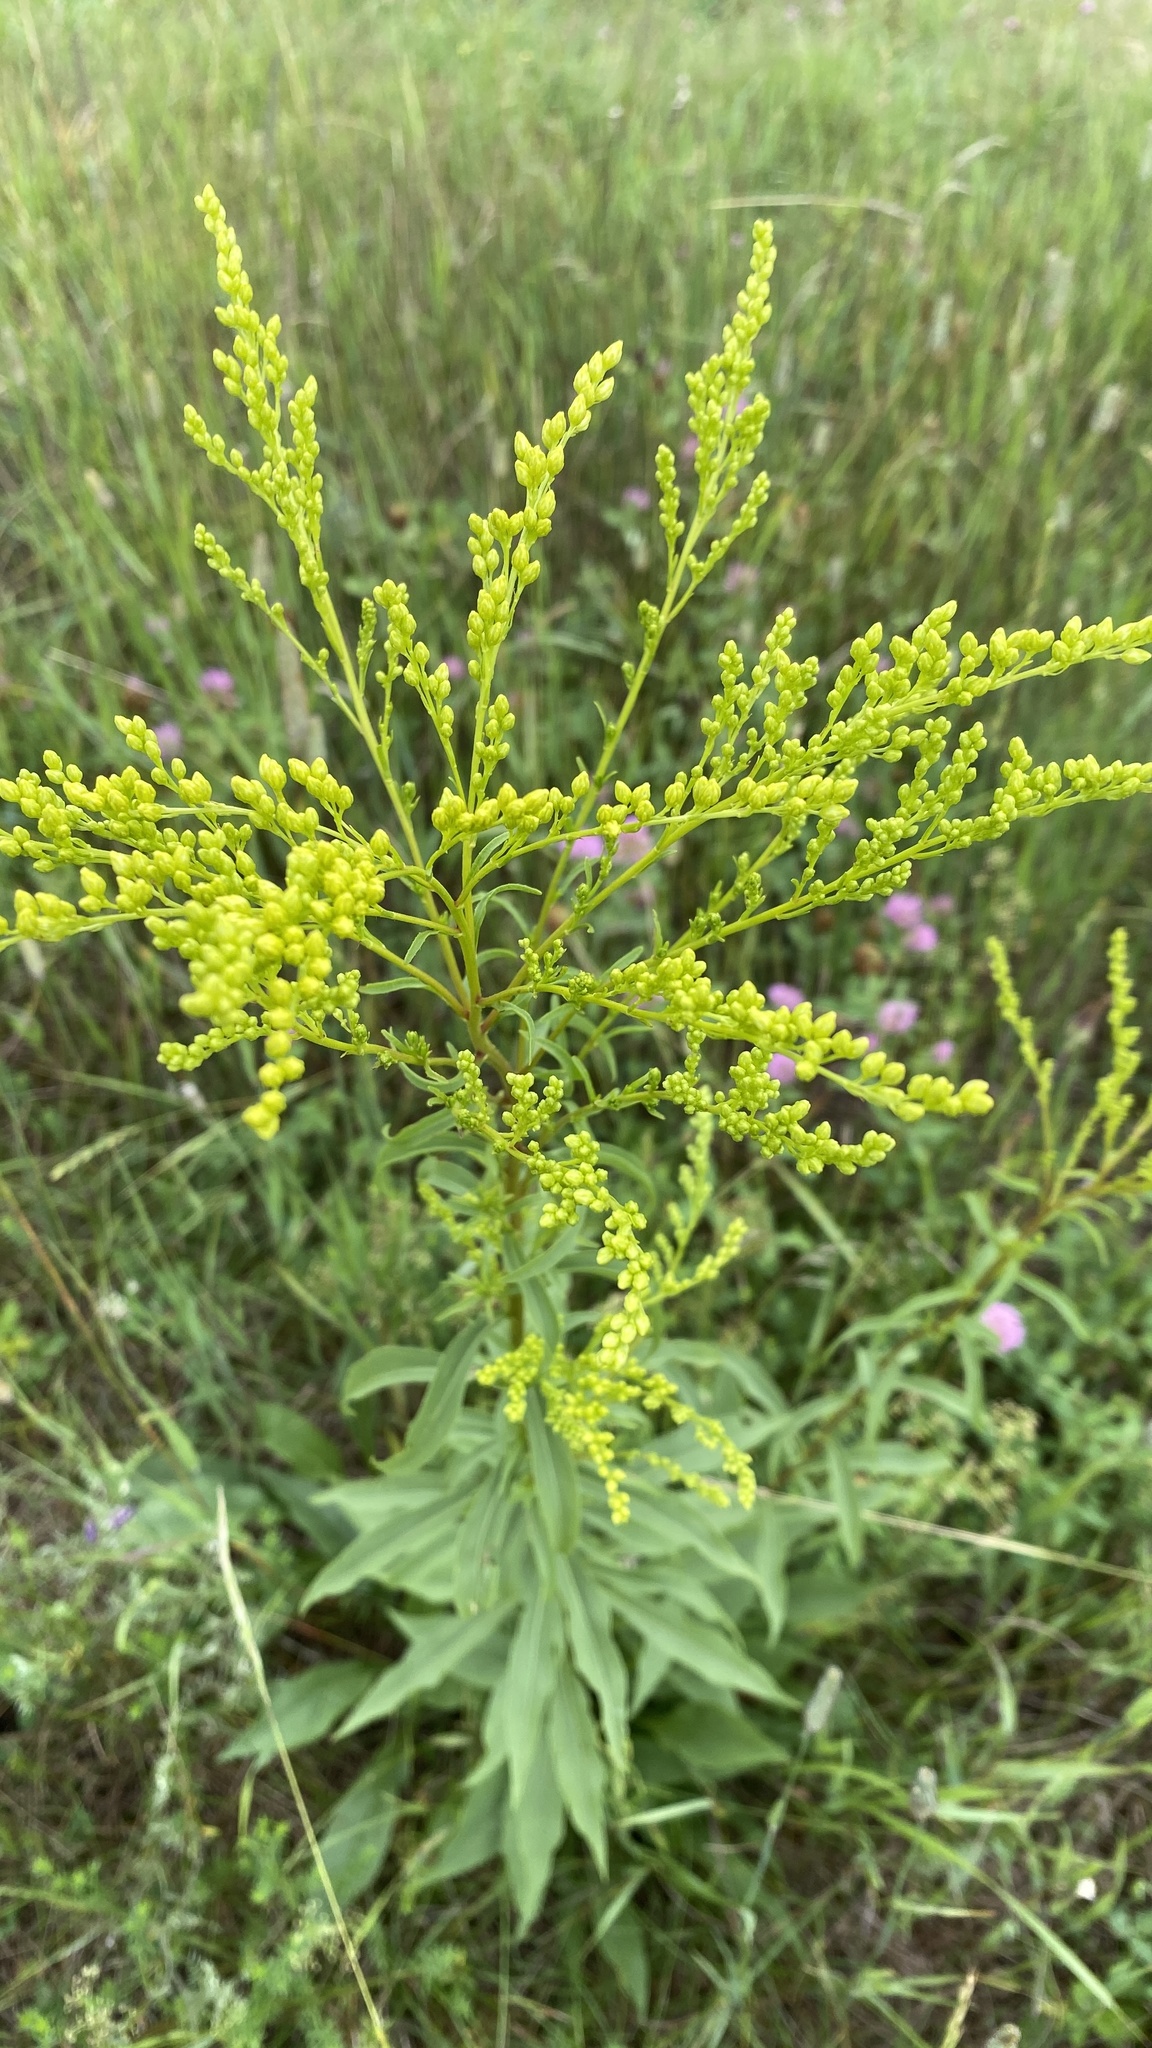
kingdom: Plantae
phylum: Tracheophyta
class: Magnoliopsida
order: Asterales
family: Asteraceae
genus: Solidago
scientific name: Solidago juncea
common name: Early goldenrod
